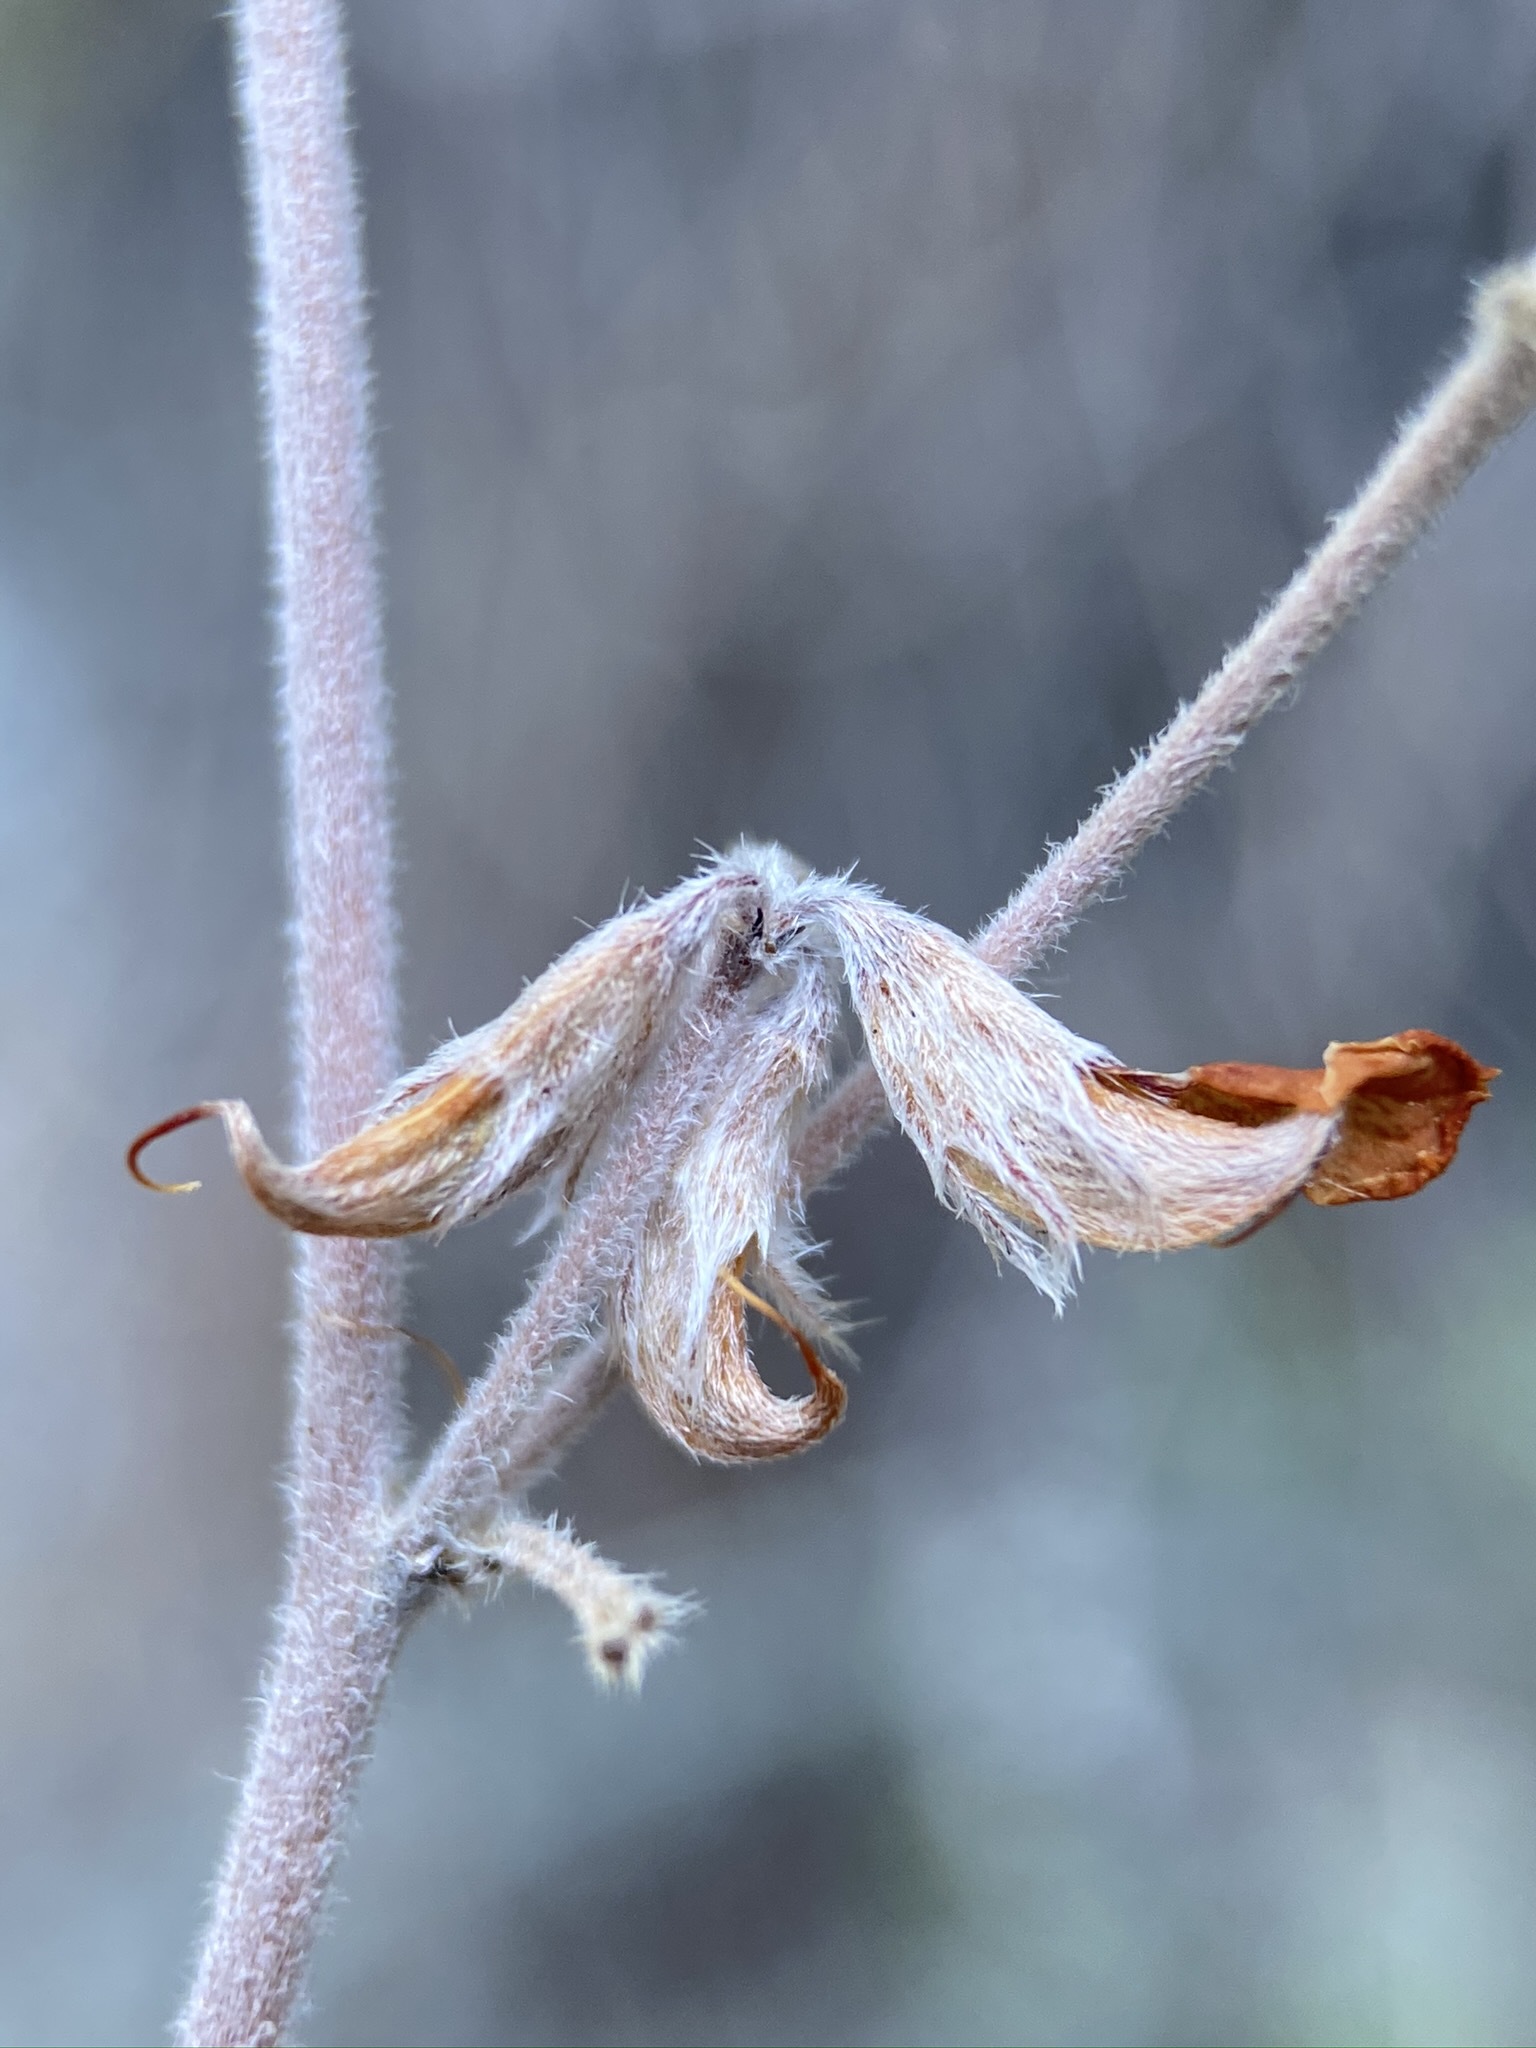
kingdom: Plantae
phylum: Tracheophyta
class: Magnoliopsida
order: Fabales
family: Fabaceae
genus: Acmispon
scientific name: Acmispon argophyllus
